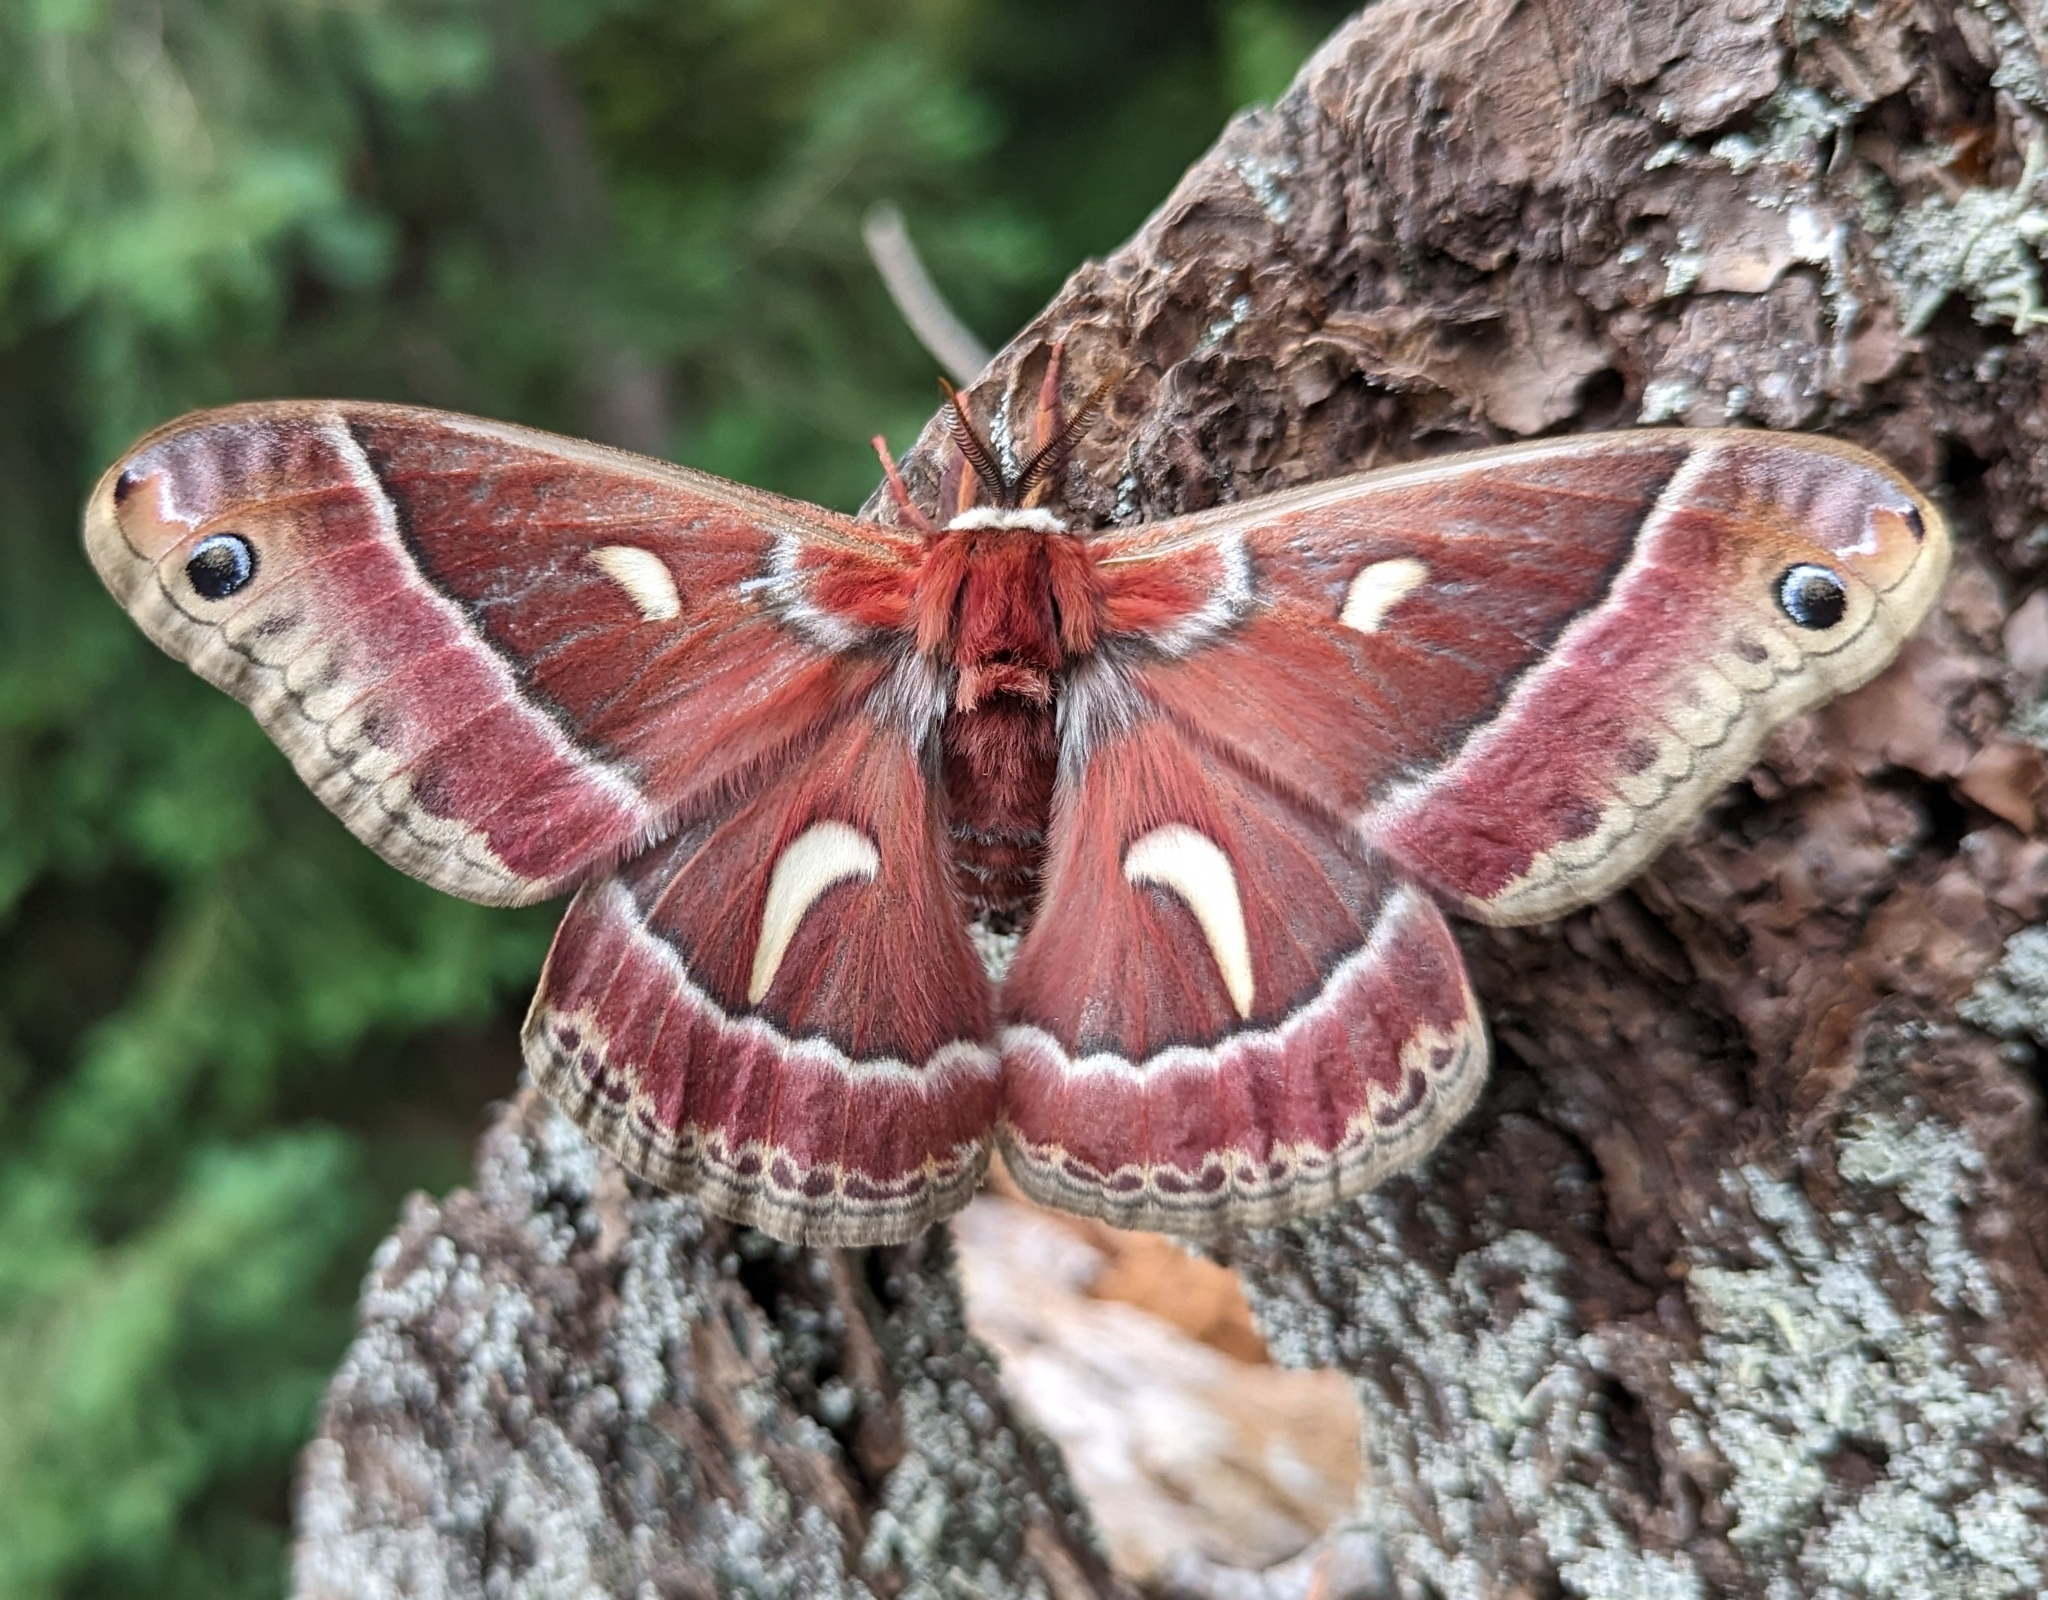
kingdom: Animalia
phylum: Arthropoda
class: Insecta
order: Lepidoptera
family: Saturniidae
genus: Hyalophora
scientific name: Hyalophora euryalus
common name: Ceanothus silkmoth
